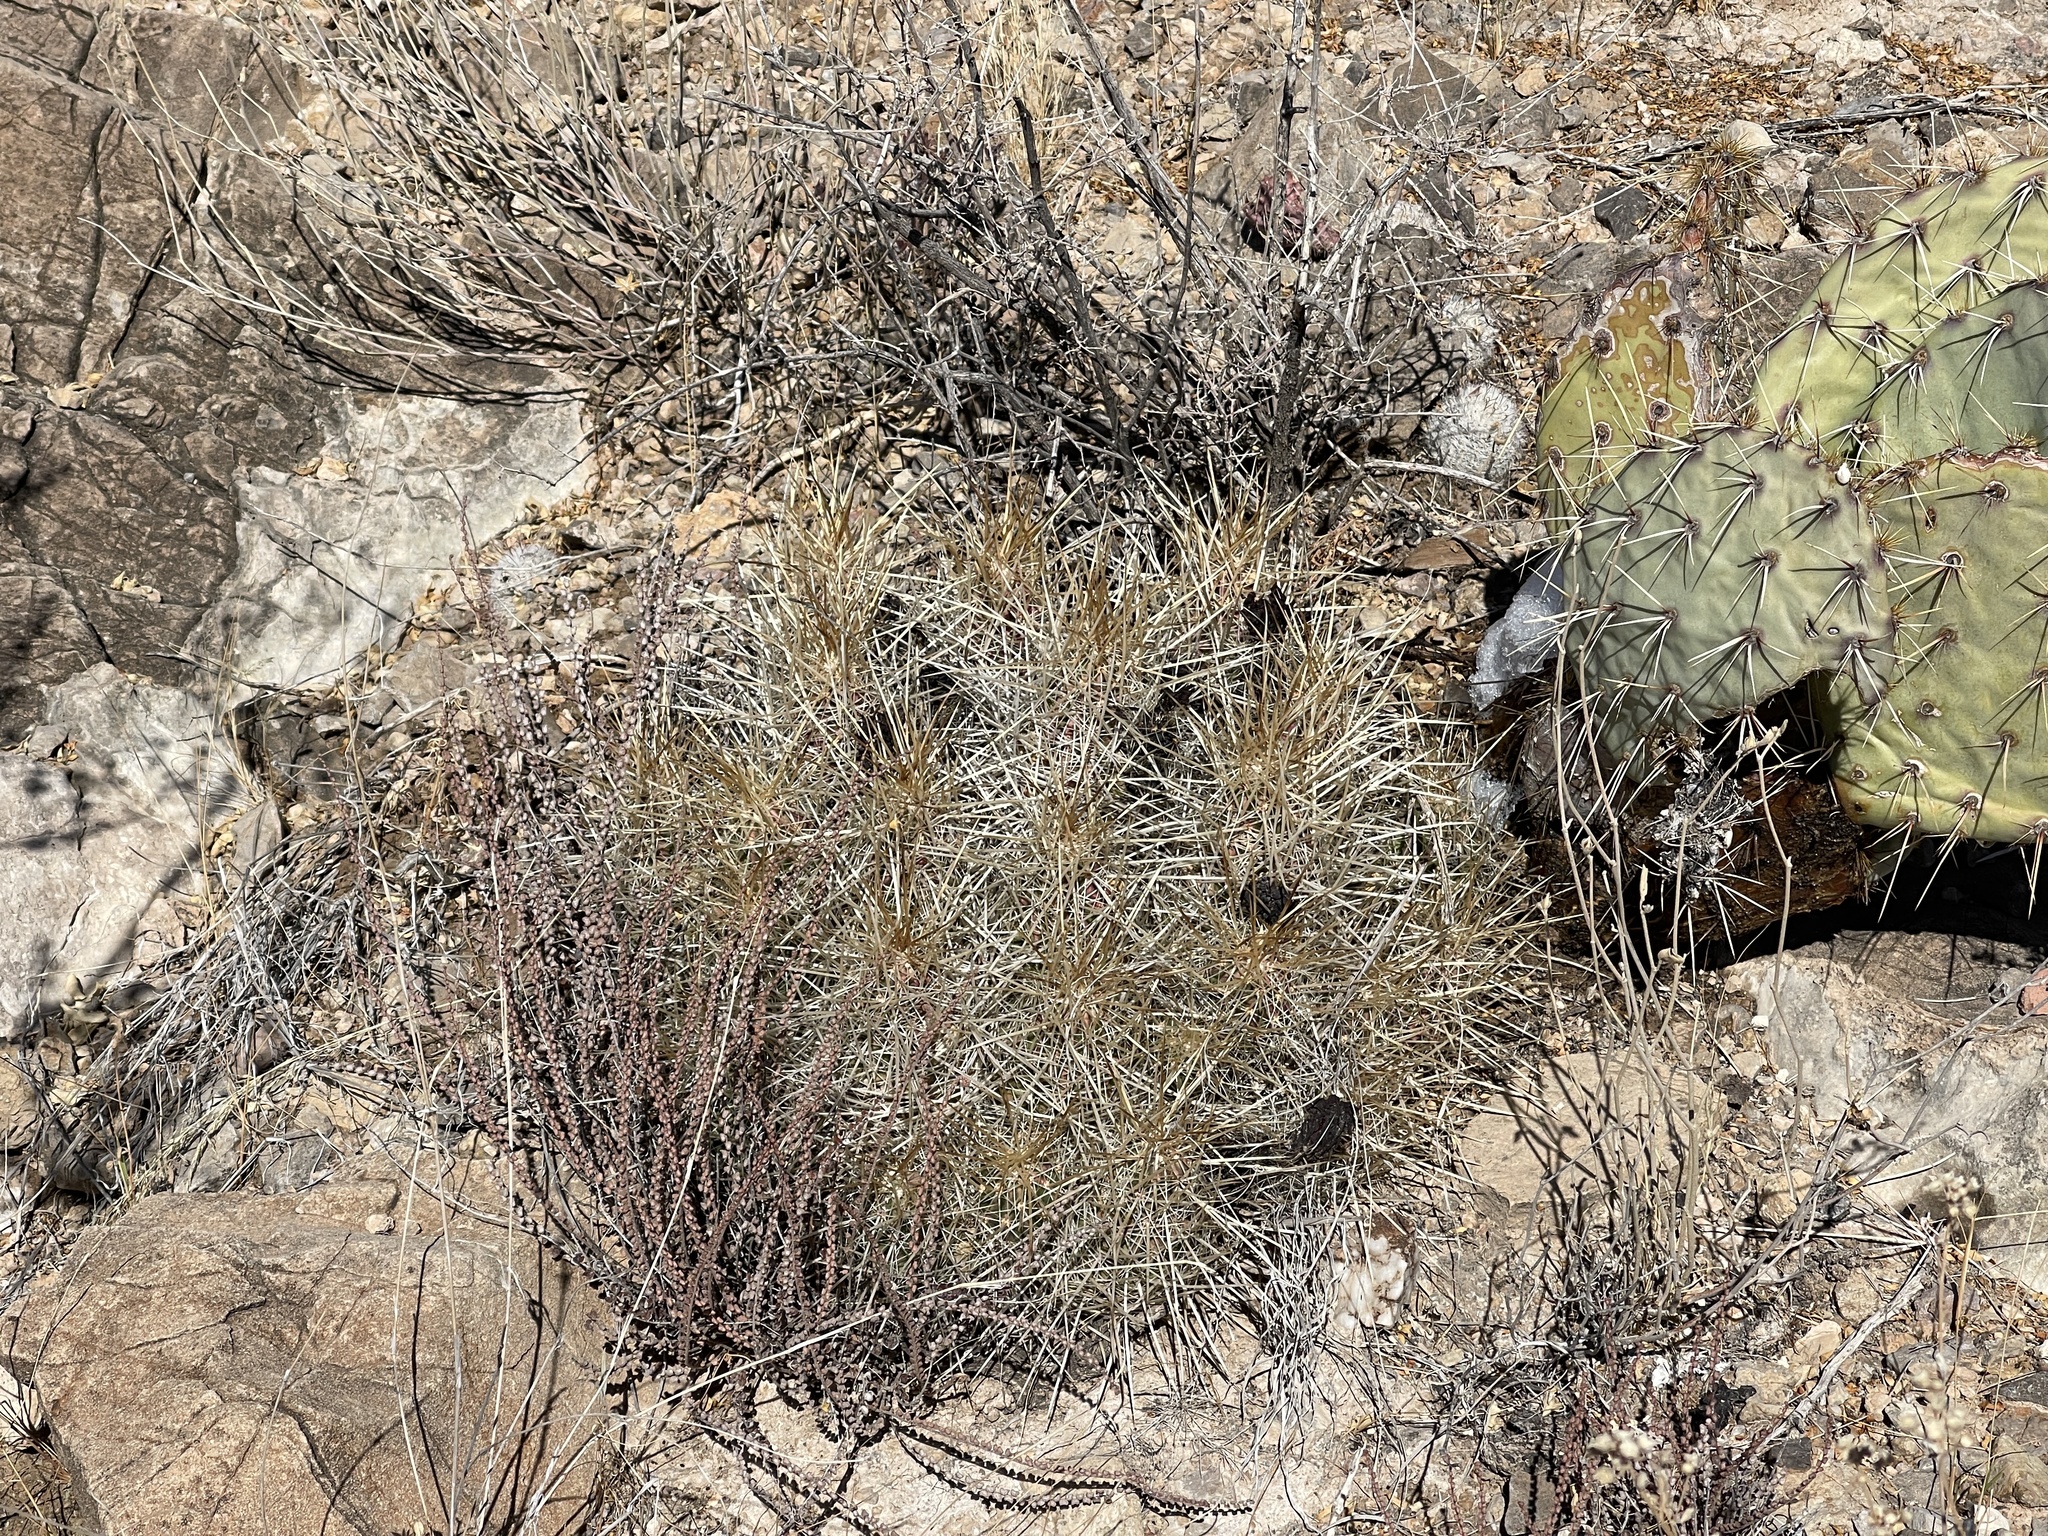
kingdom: Plantae
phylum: Tracheophyta
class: Magnoliopsida
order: Caryophyllales
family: Cactaceae
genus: Echinocereus
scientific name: Echinocereus stramineus
